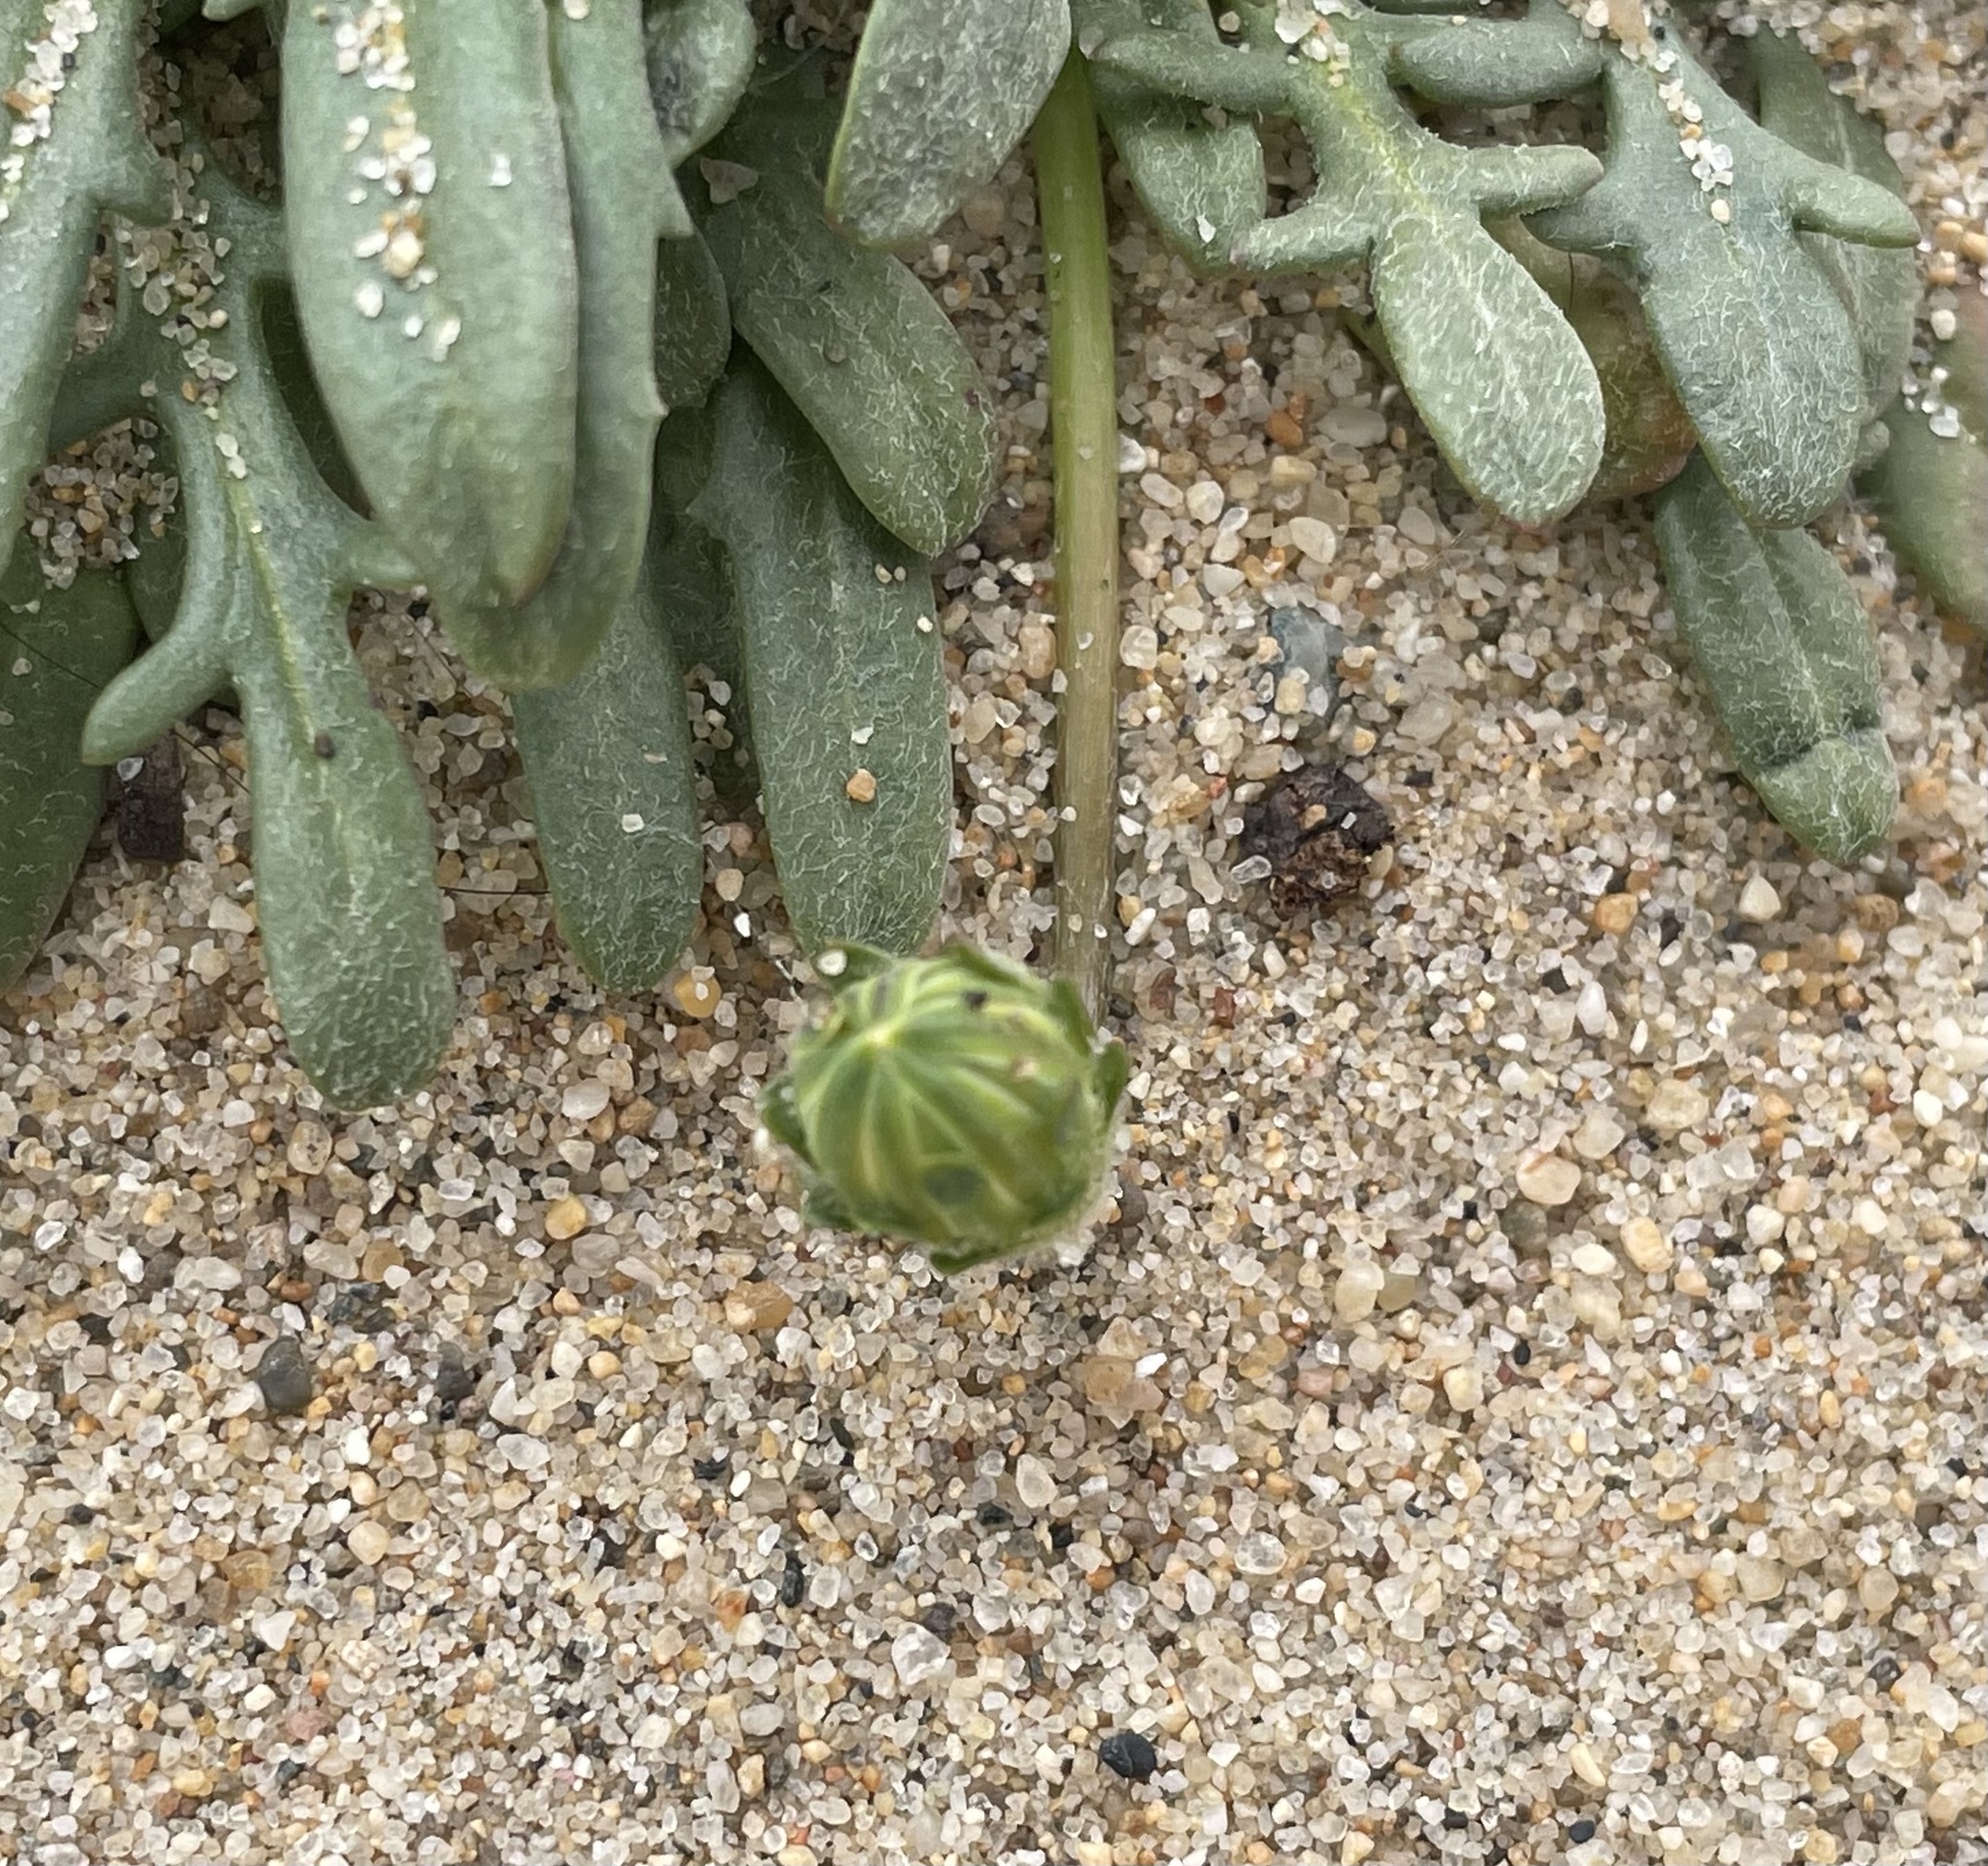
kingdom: Plantae
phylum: Tracheophyta
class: Magnoliopsida
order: Asterales
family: Asteraceae
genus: Agoseris
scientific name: Agoseris apargioides
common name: Point reyes agoseris
